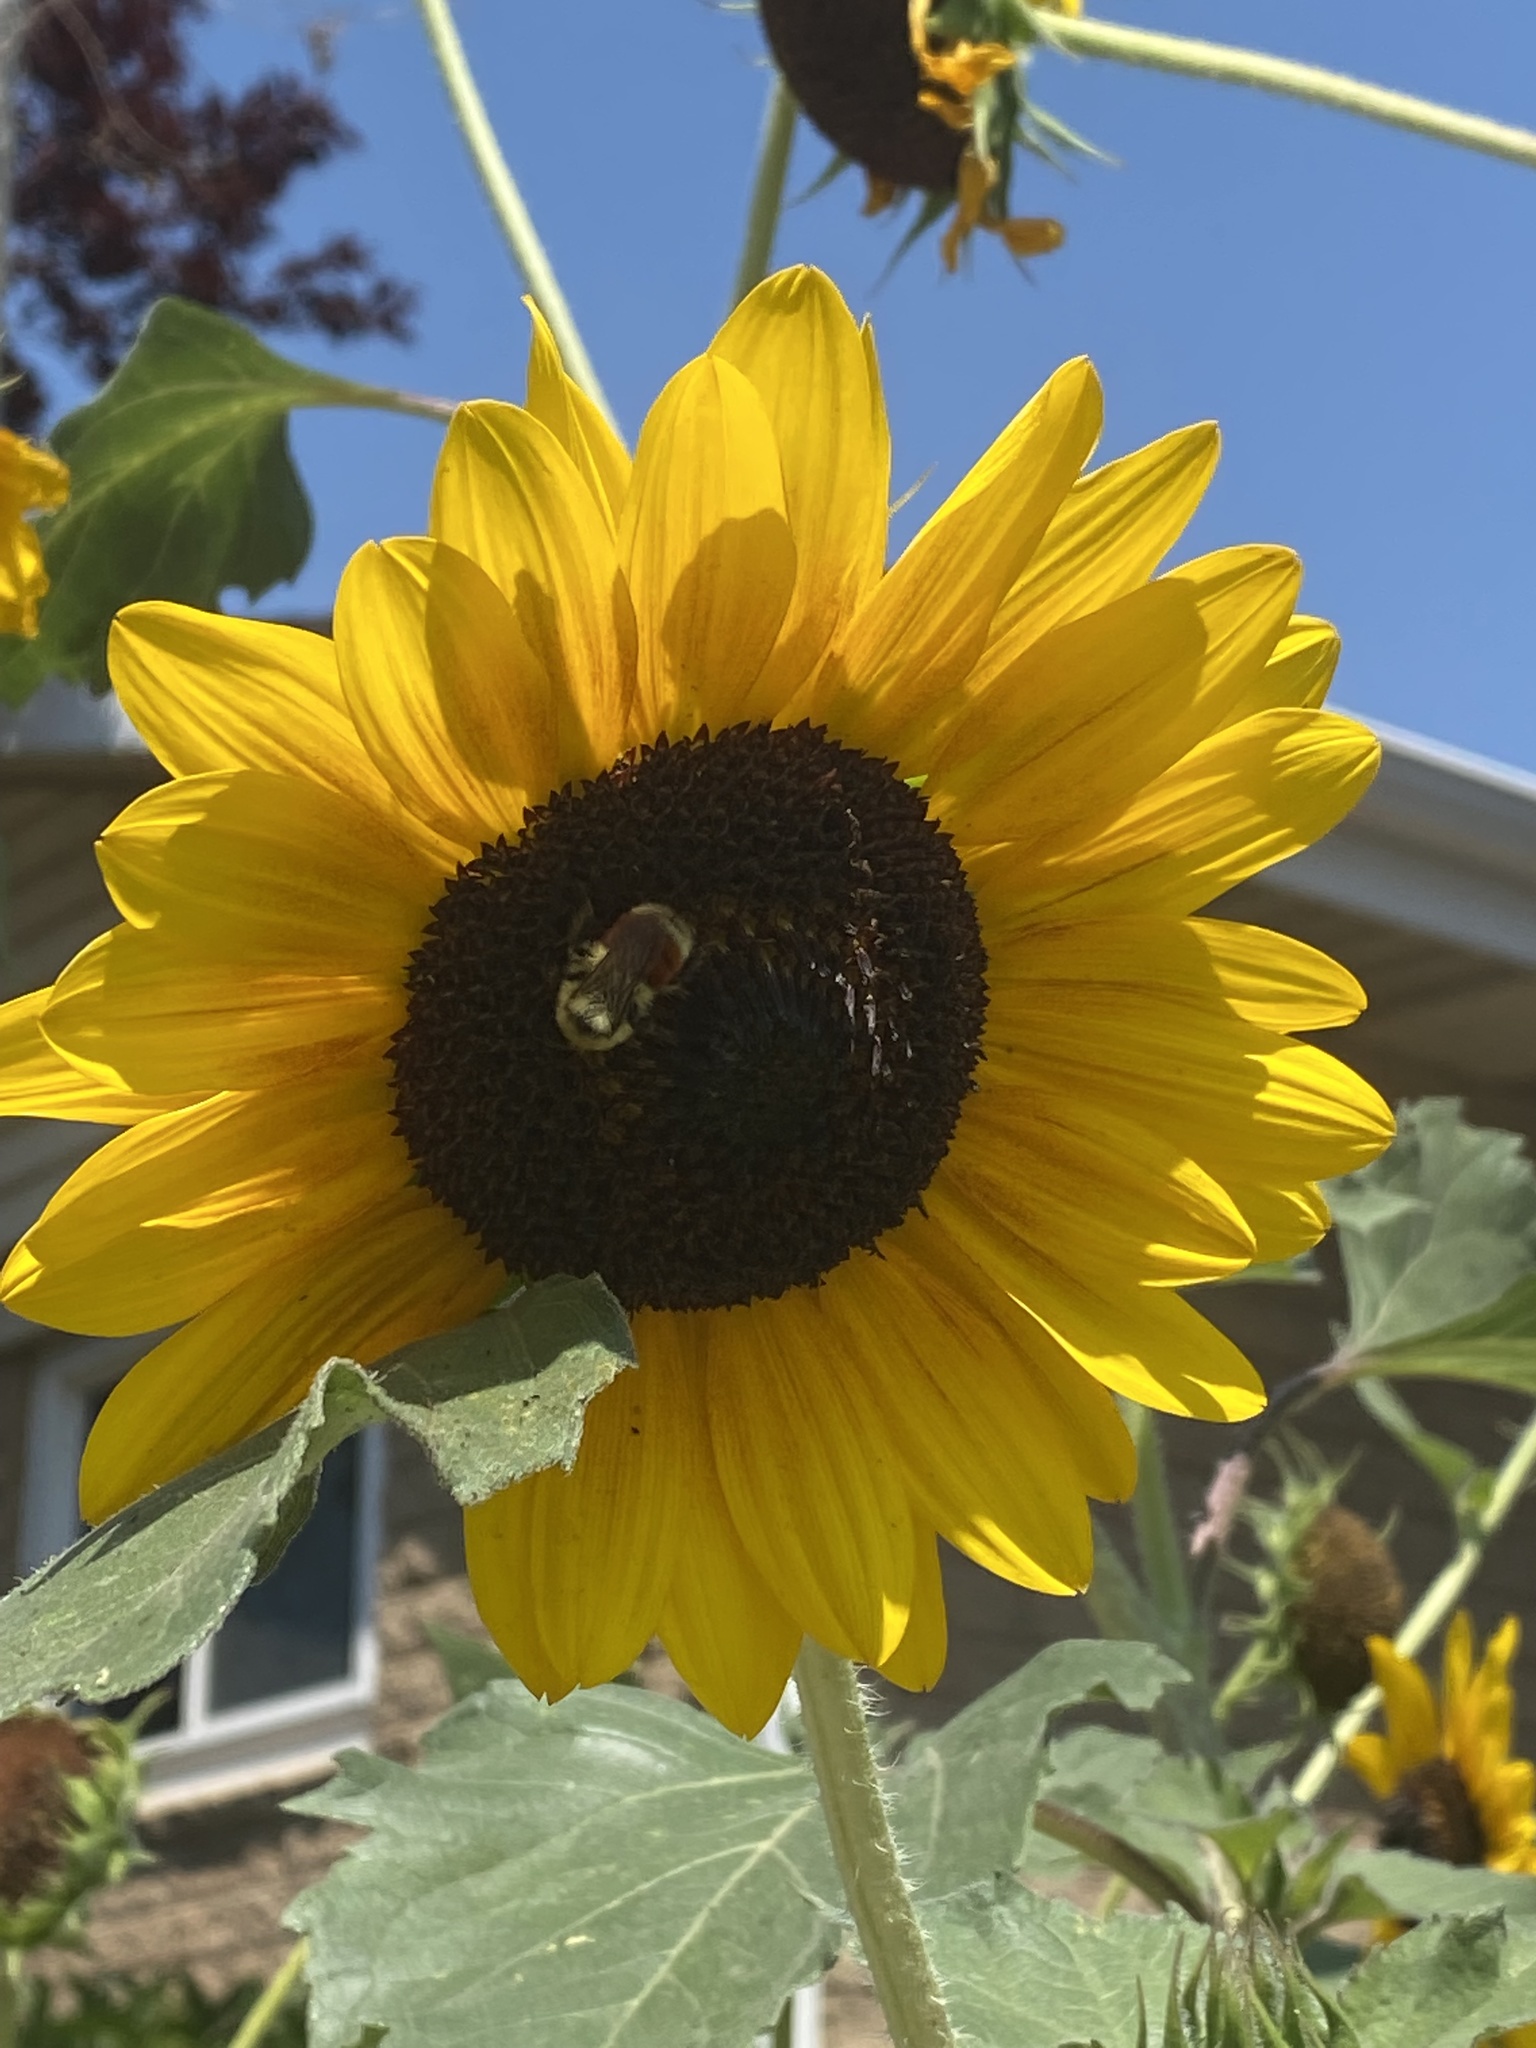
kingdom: Animalia
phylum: Arthropoda
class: Insecta
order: Hymenoptera
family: Apidae
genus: Bombus
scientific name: Bombus huntii
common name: Hunt bumble bee
